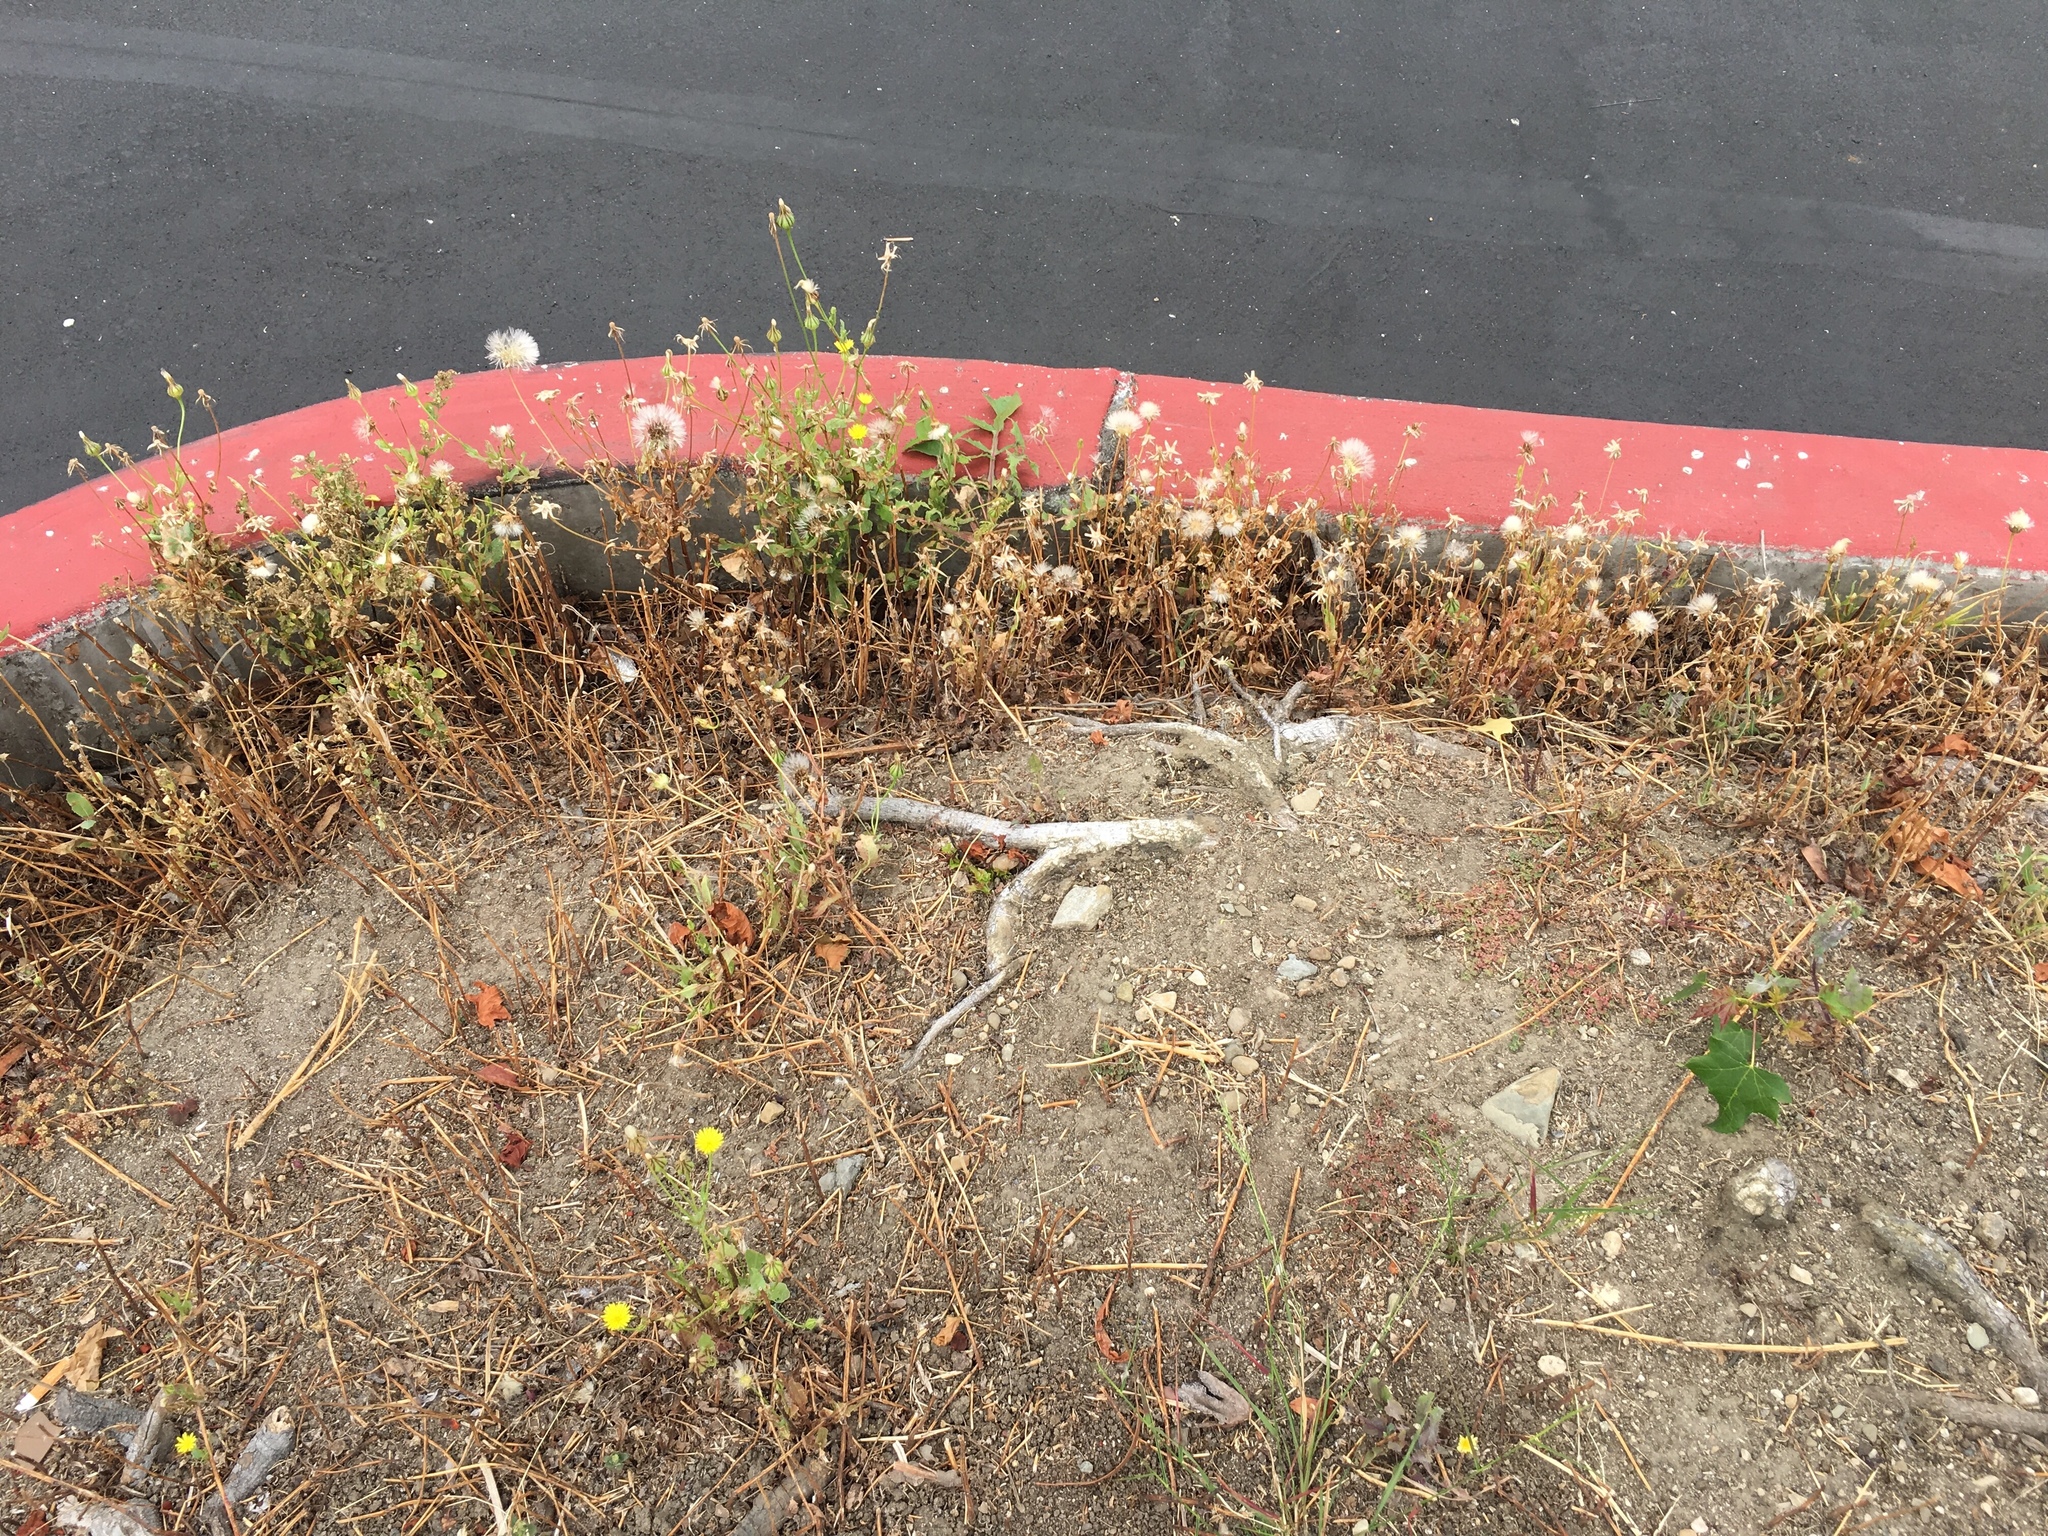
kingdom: Plantae
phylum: Tracheophyta
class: Magnoliopsida
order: Asterales
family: Asteraceae
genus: Urospermum
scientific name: Urospermum picroides
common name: False hawkbit
